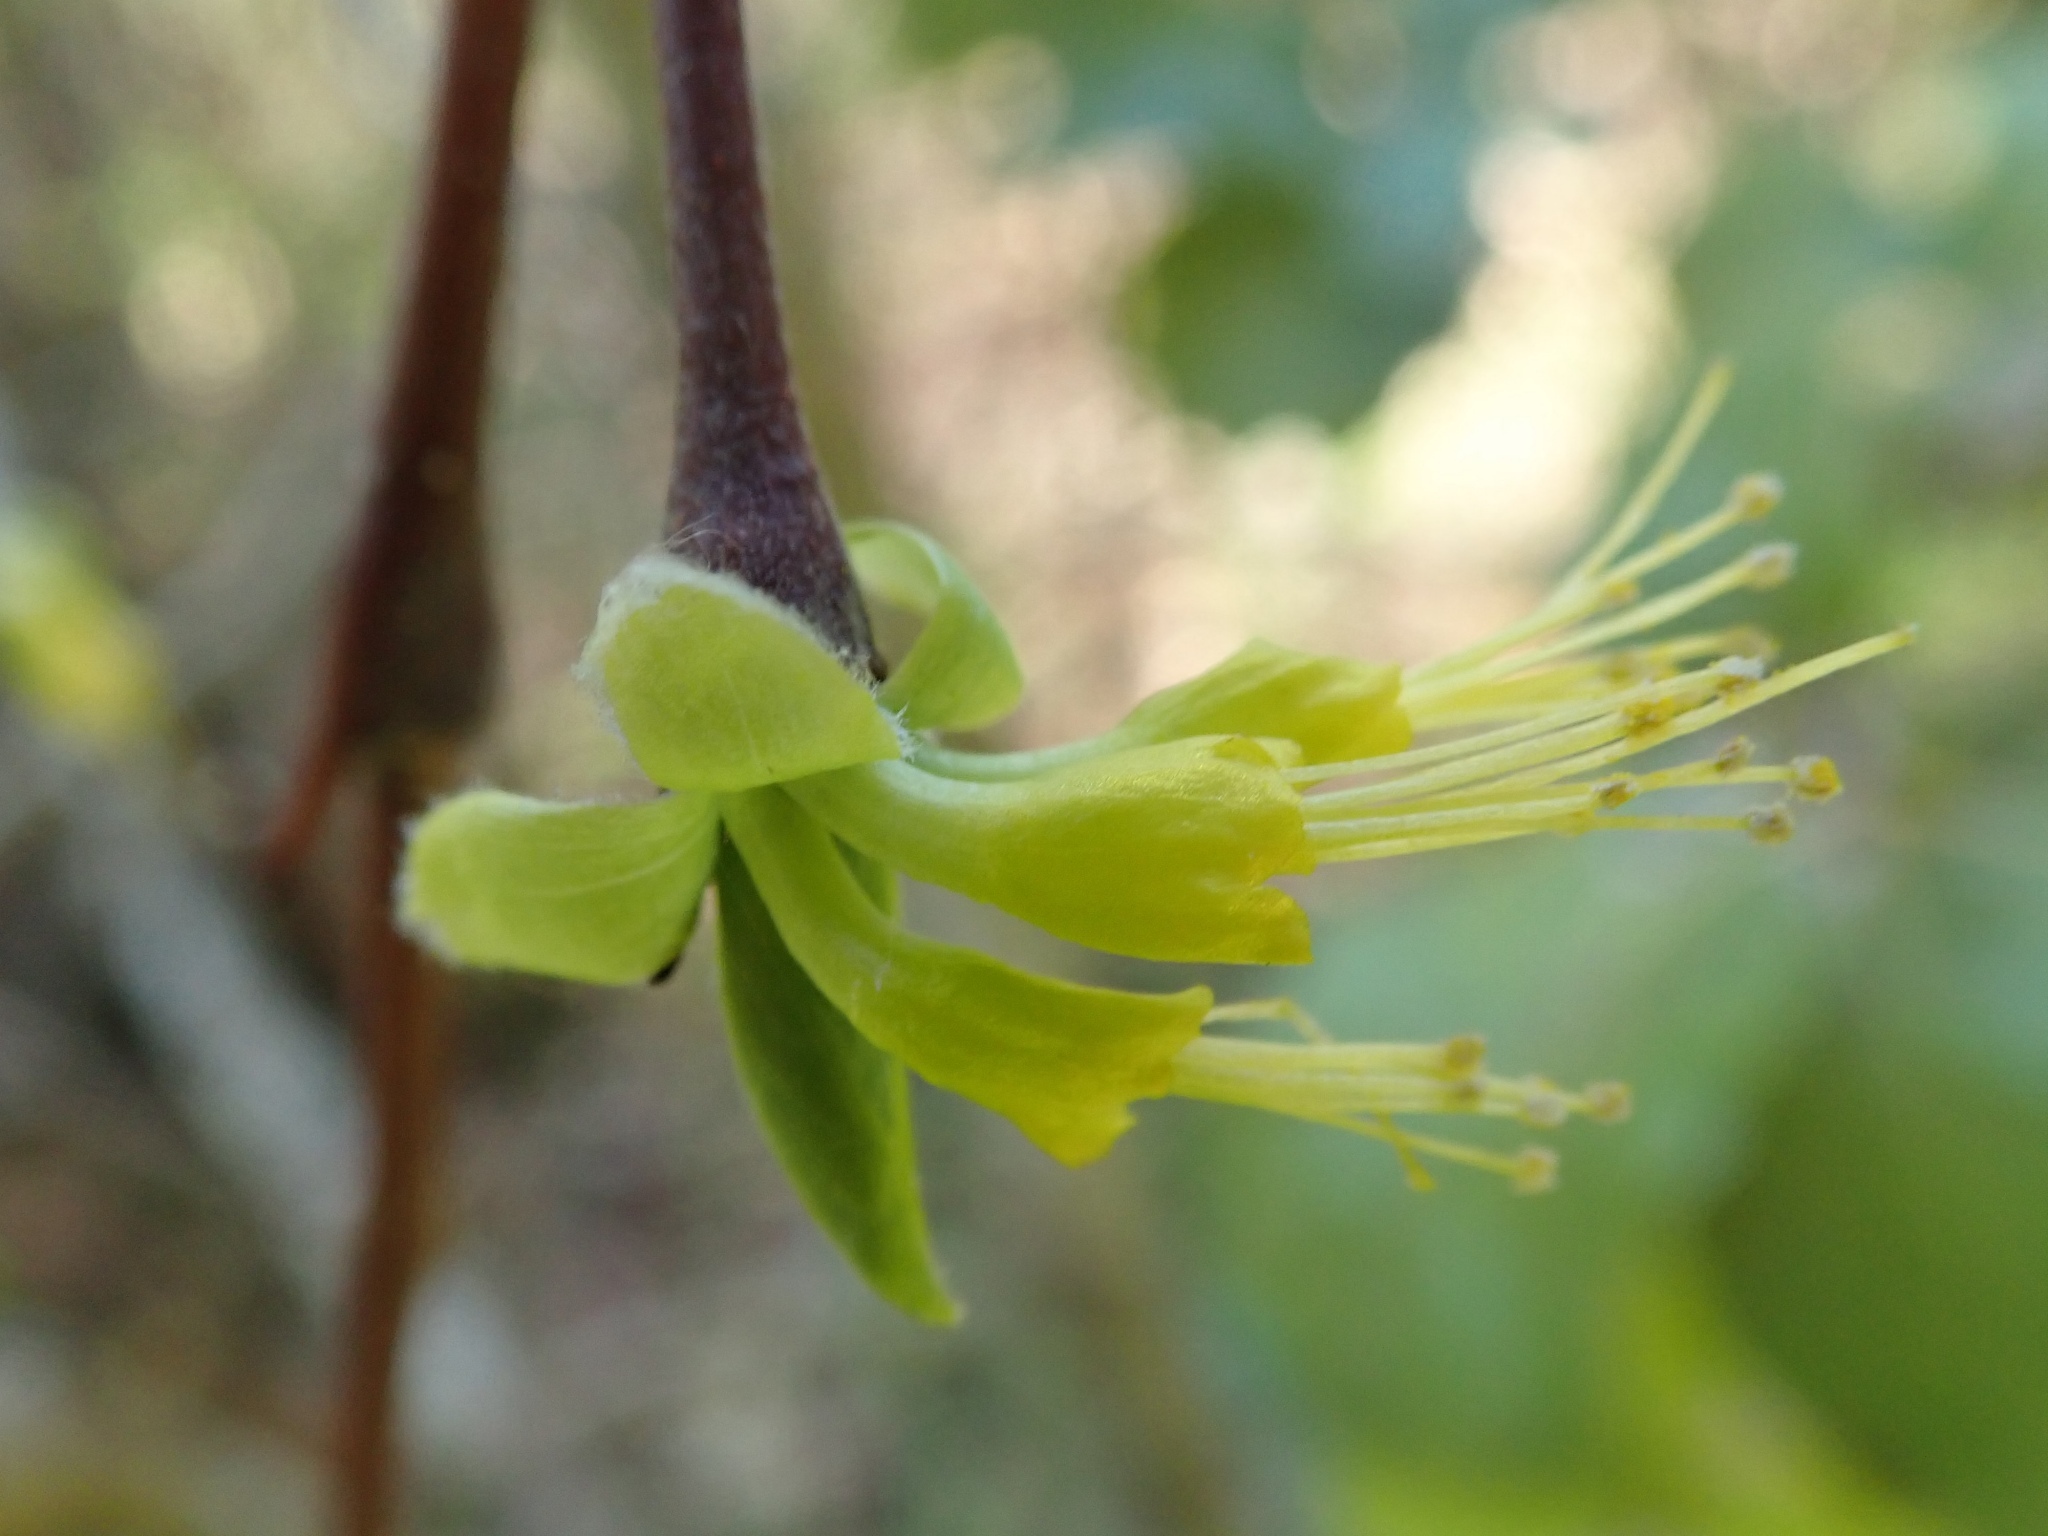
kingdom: Plantae
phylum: Tracheophyta
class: Magnoliopsida
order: Malvales
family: Thymelaeaceae
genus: Dirca
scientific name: Dirca occidentalis
